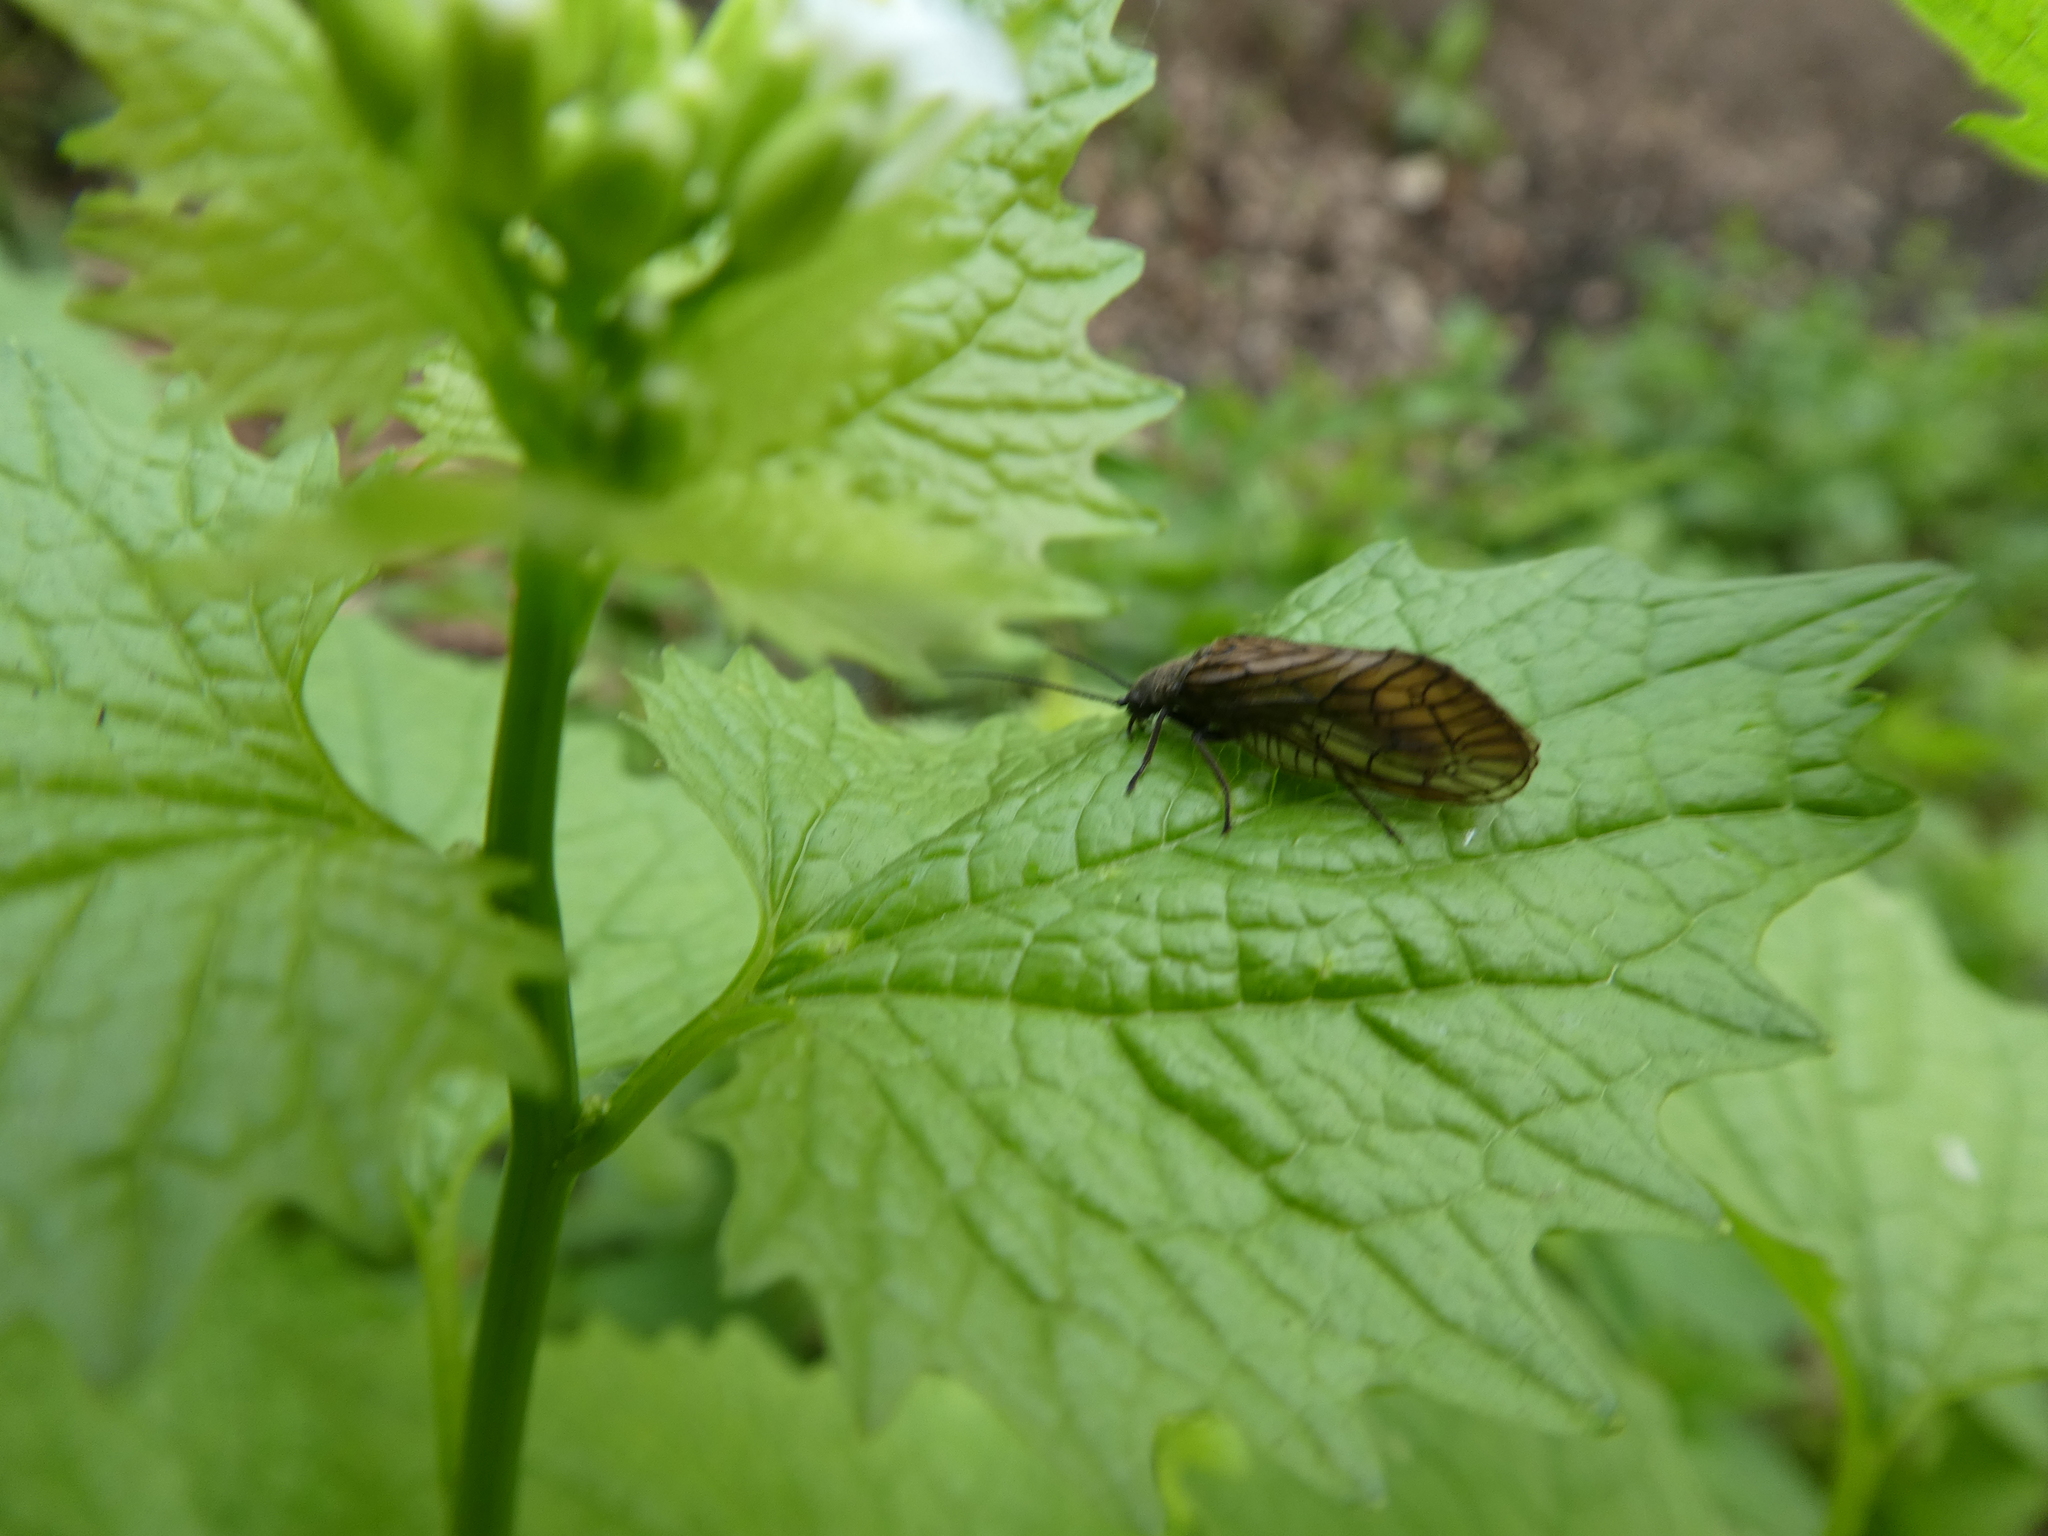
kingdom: Animalia
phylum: Arthropoda
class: Insecta
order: Megaloptera
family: Sialidae
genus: Sialis
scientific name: Sialis
